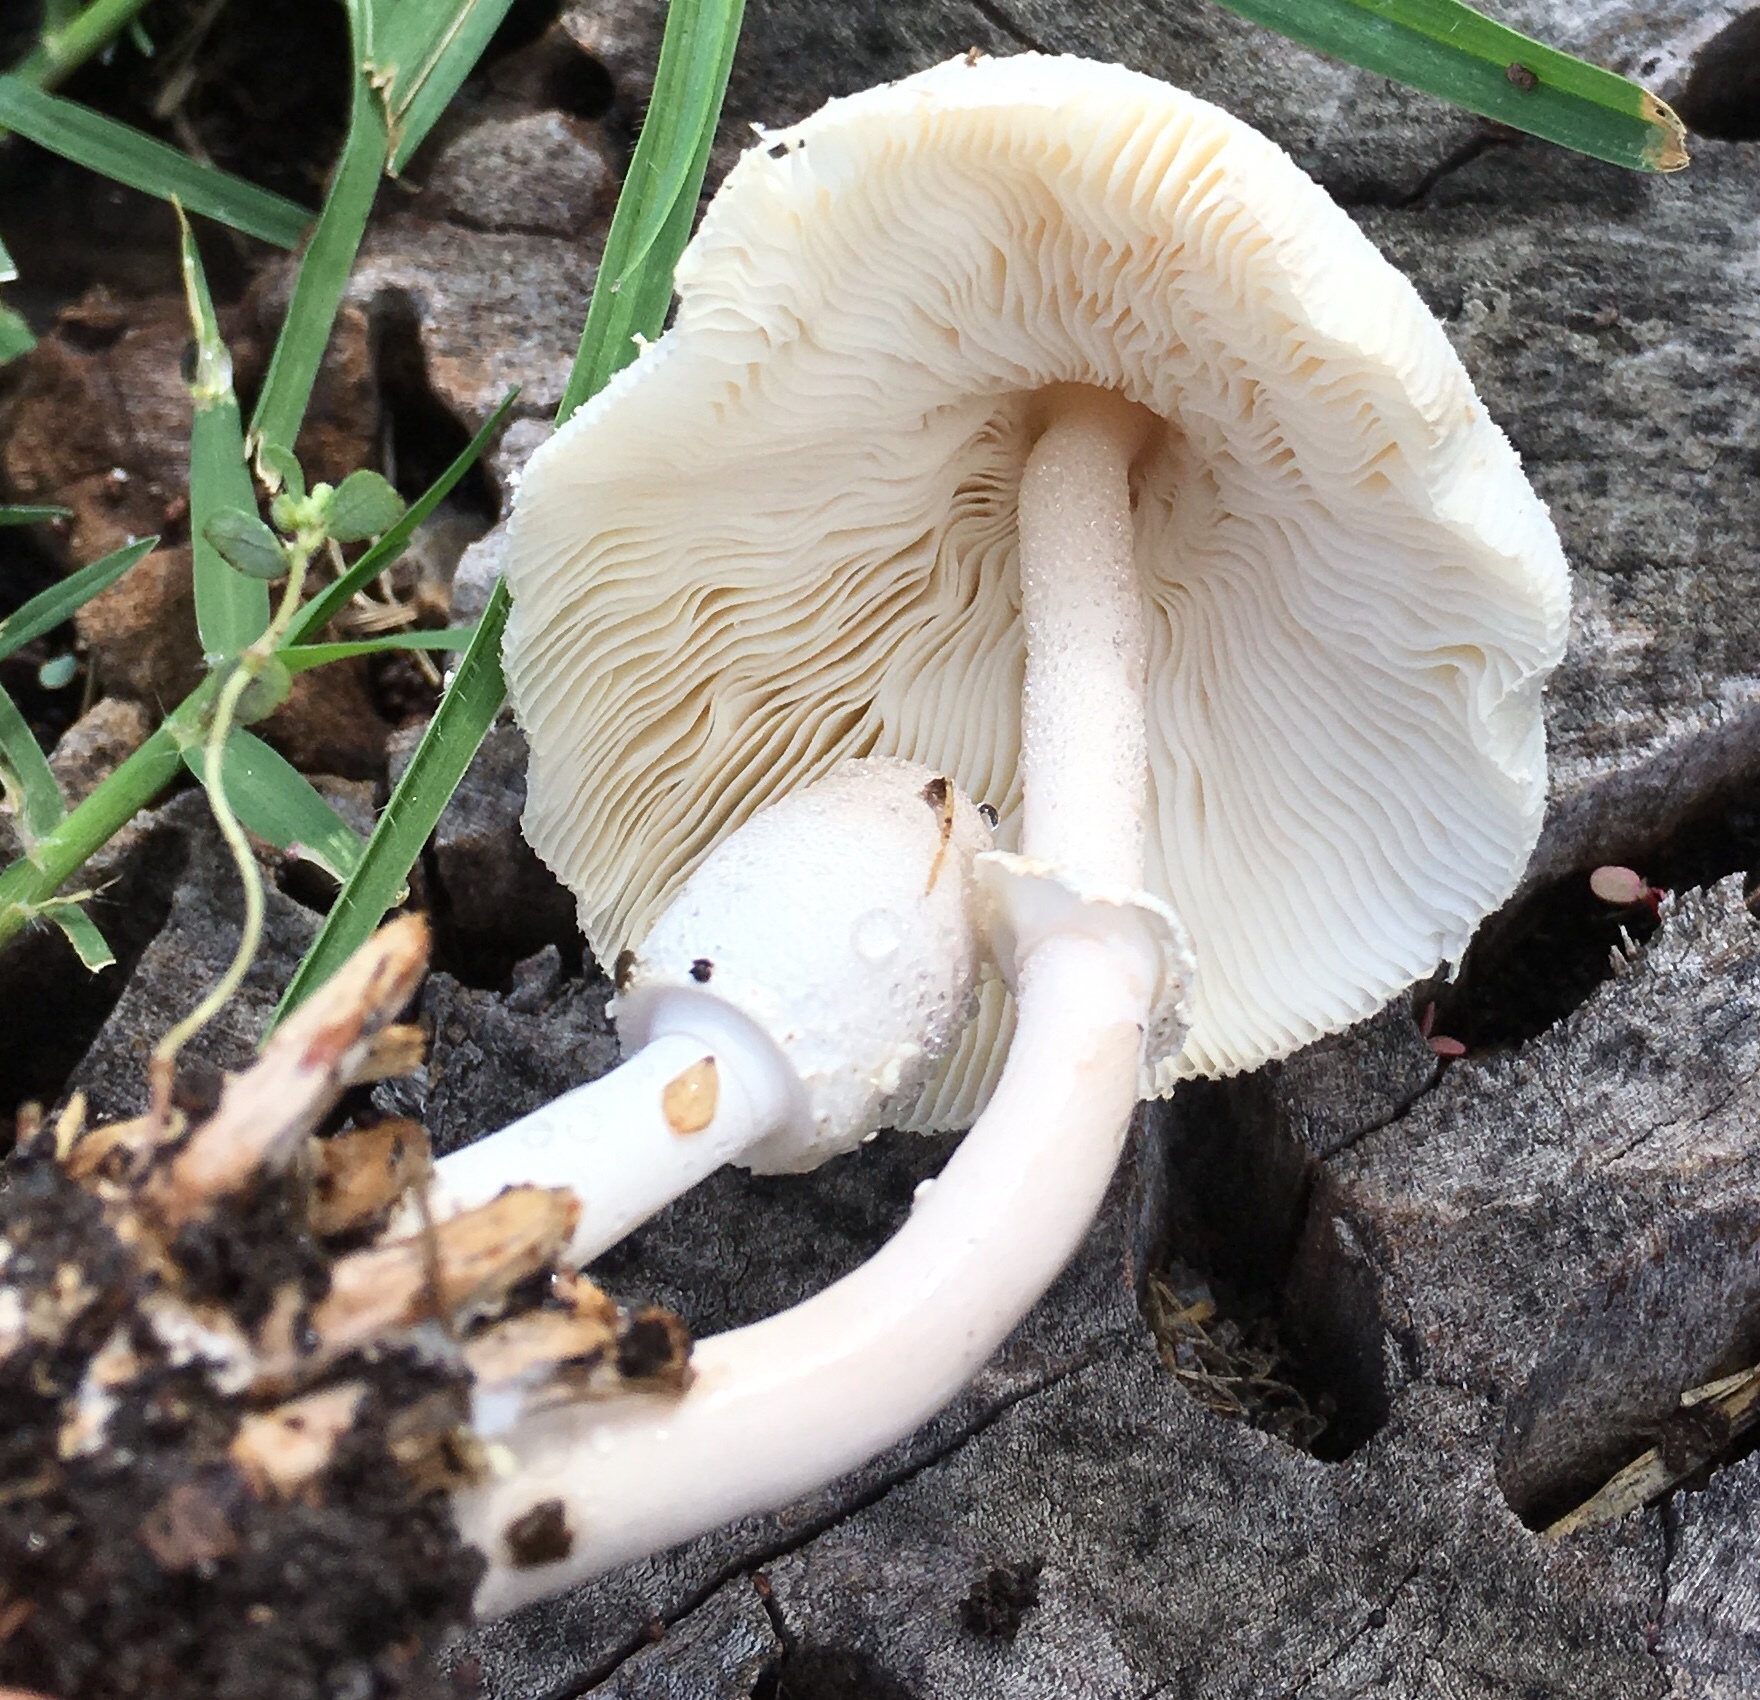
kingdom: Fungi
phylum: Basidiomycota
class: Agaricomycetes
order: Agaricales
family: Agaricaceae
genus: Leucocoprinus
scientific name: Leucocoprinus cepistipes
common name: Onion-stalk parasol
